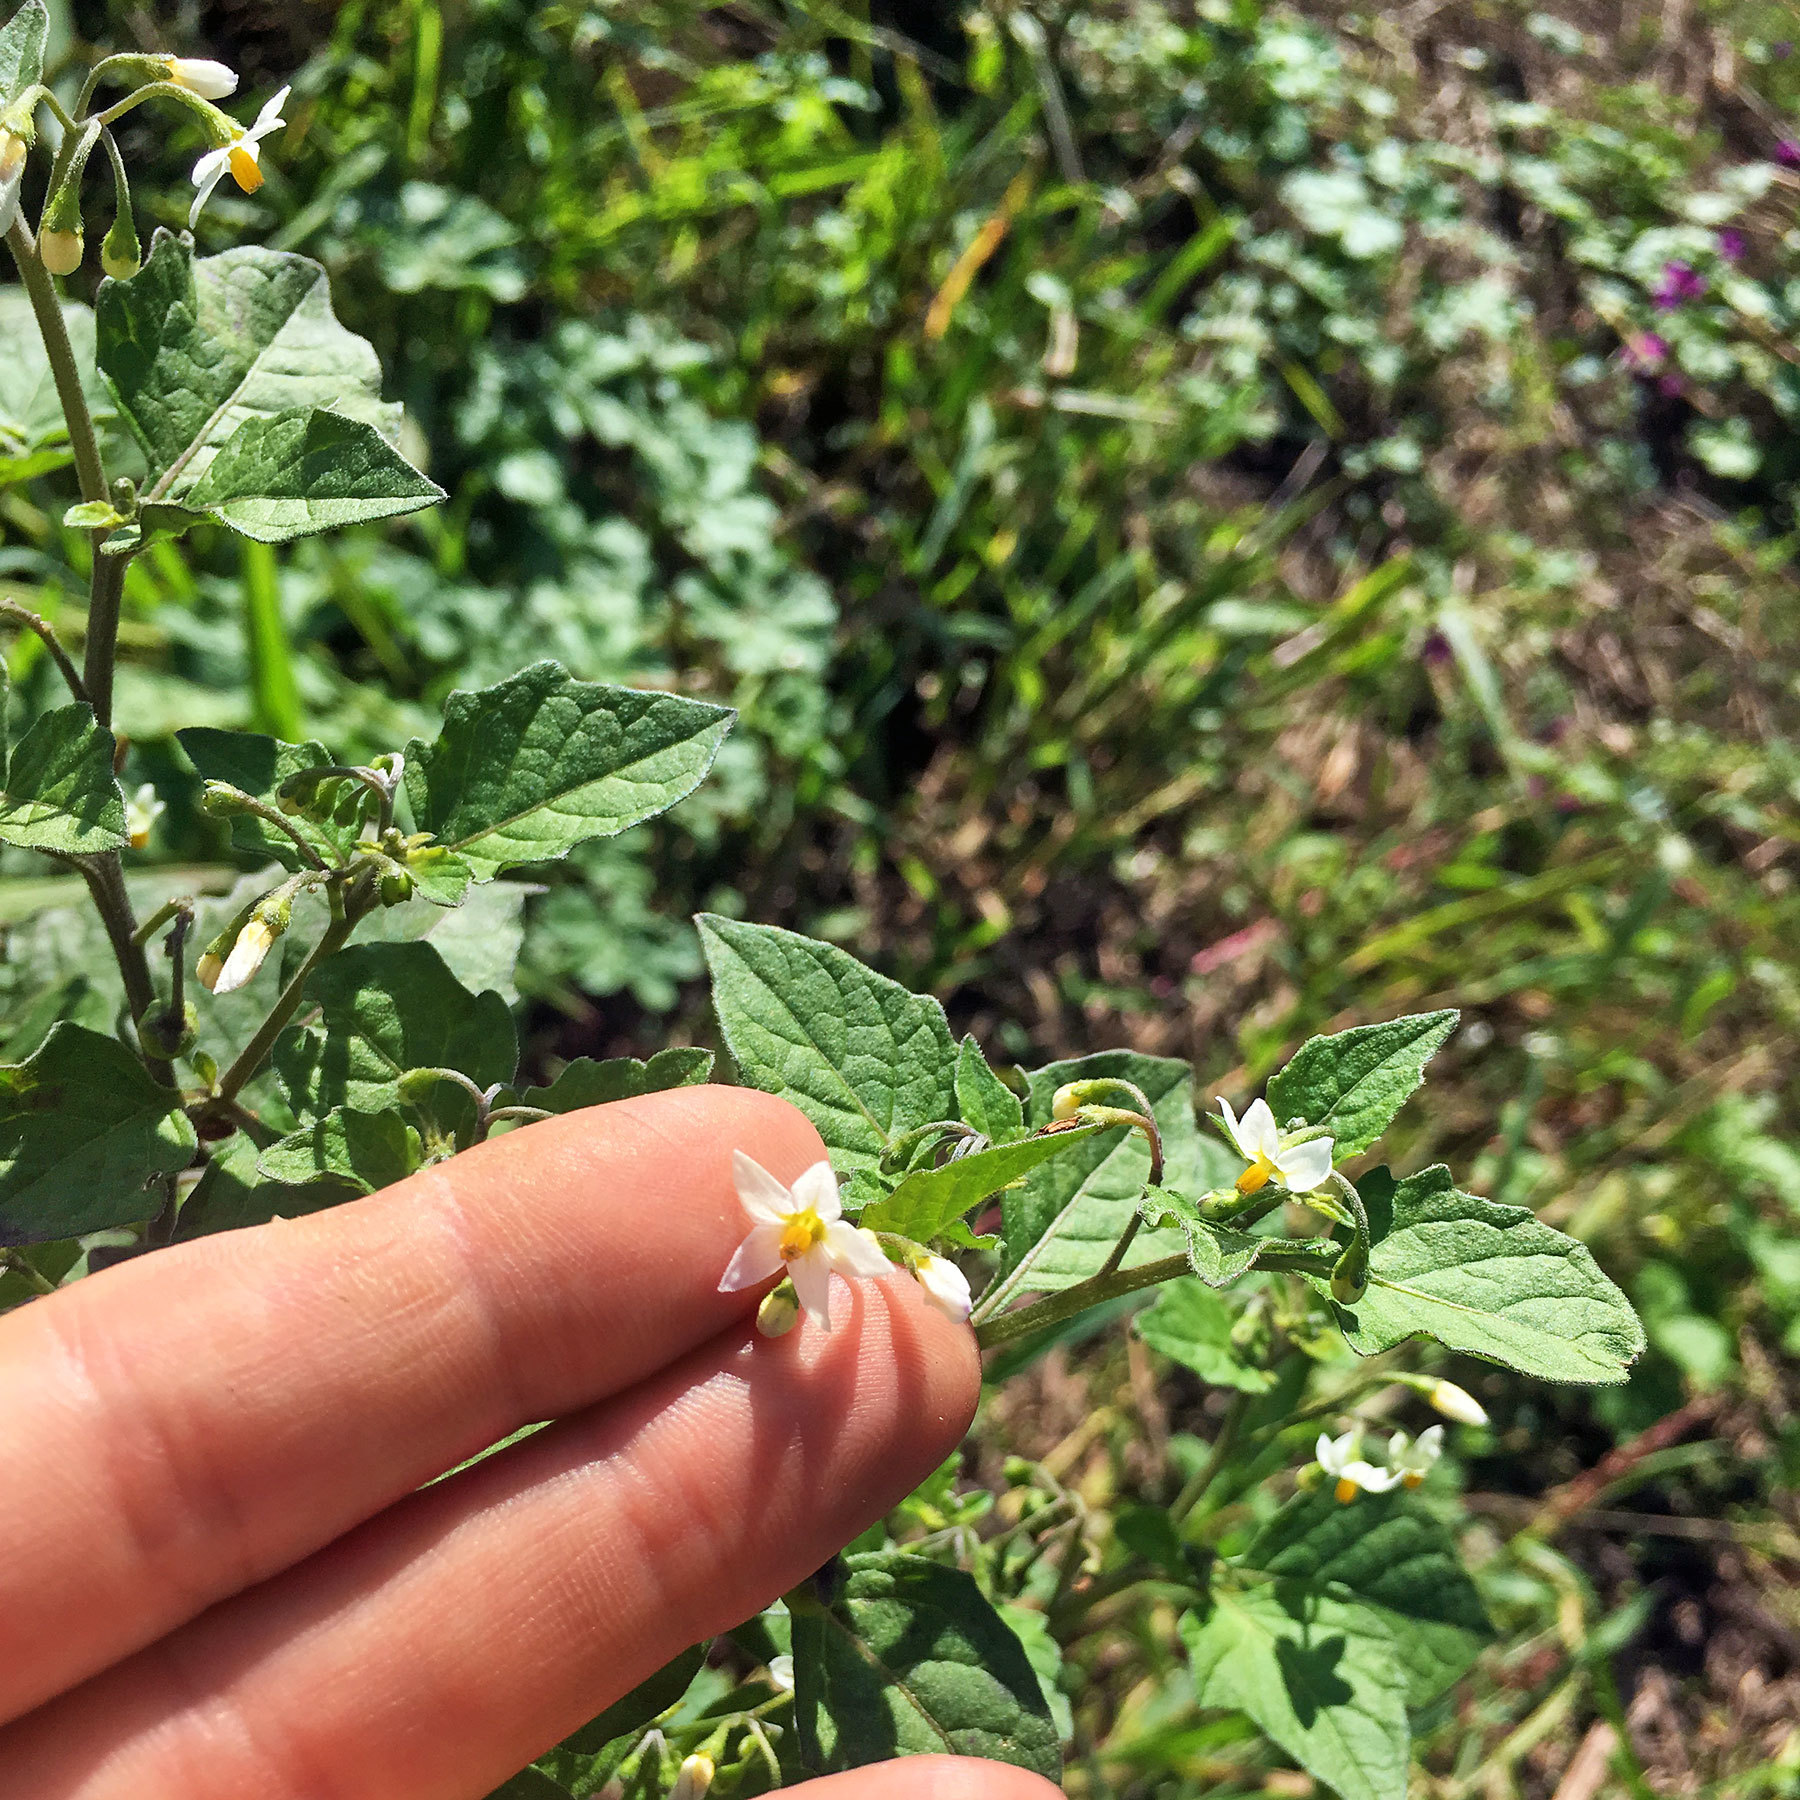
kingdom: Plantae
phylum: Tracheophyta
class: Magnoliopsida
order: Solanales
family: Solanaceae
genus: Solanum
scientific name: Solanum nigrum
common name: Black nightshade
